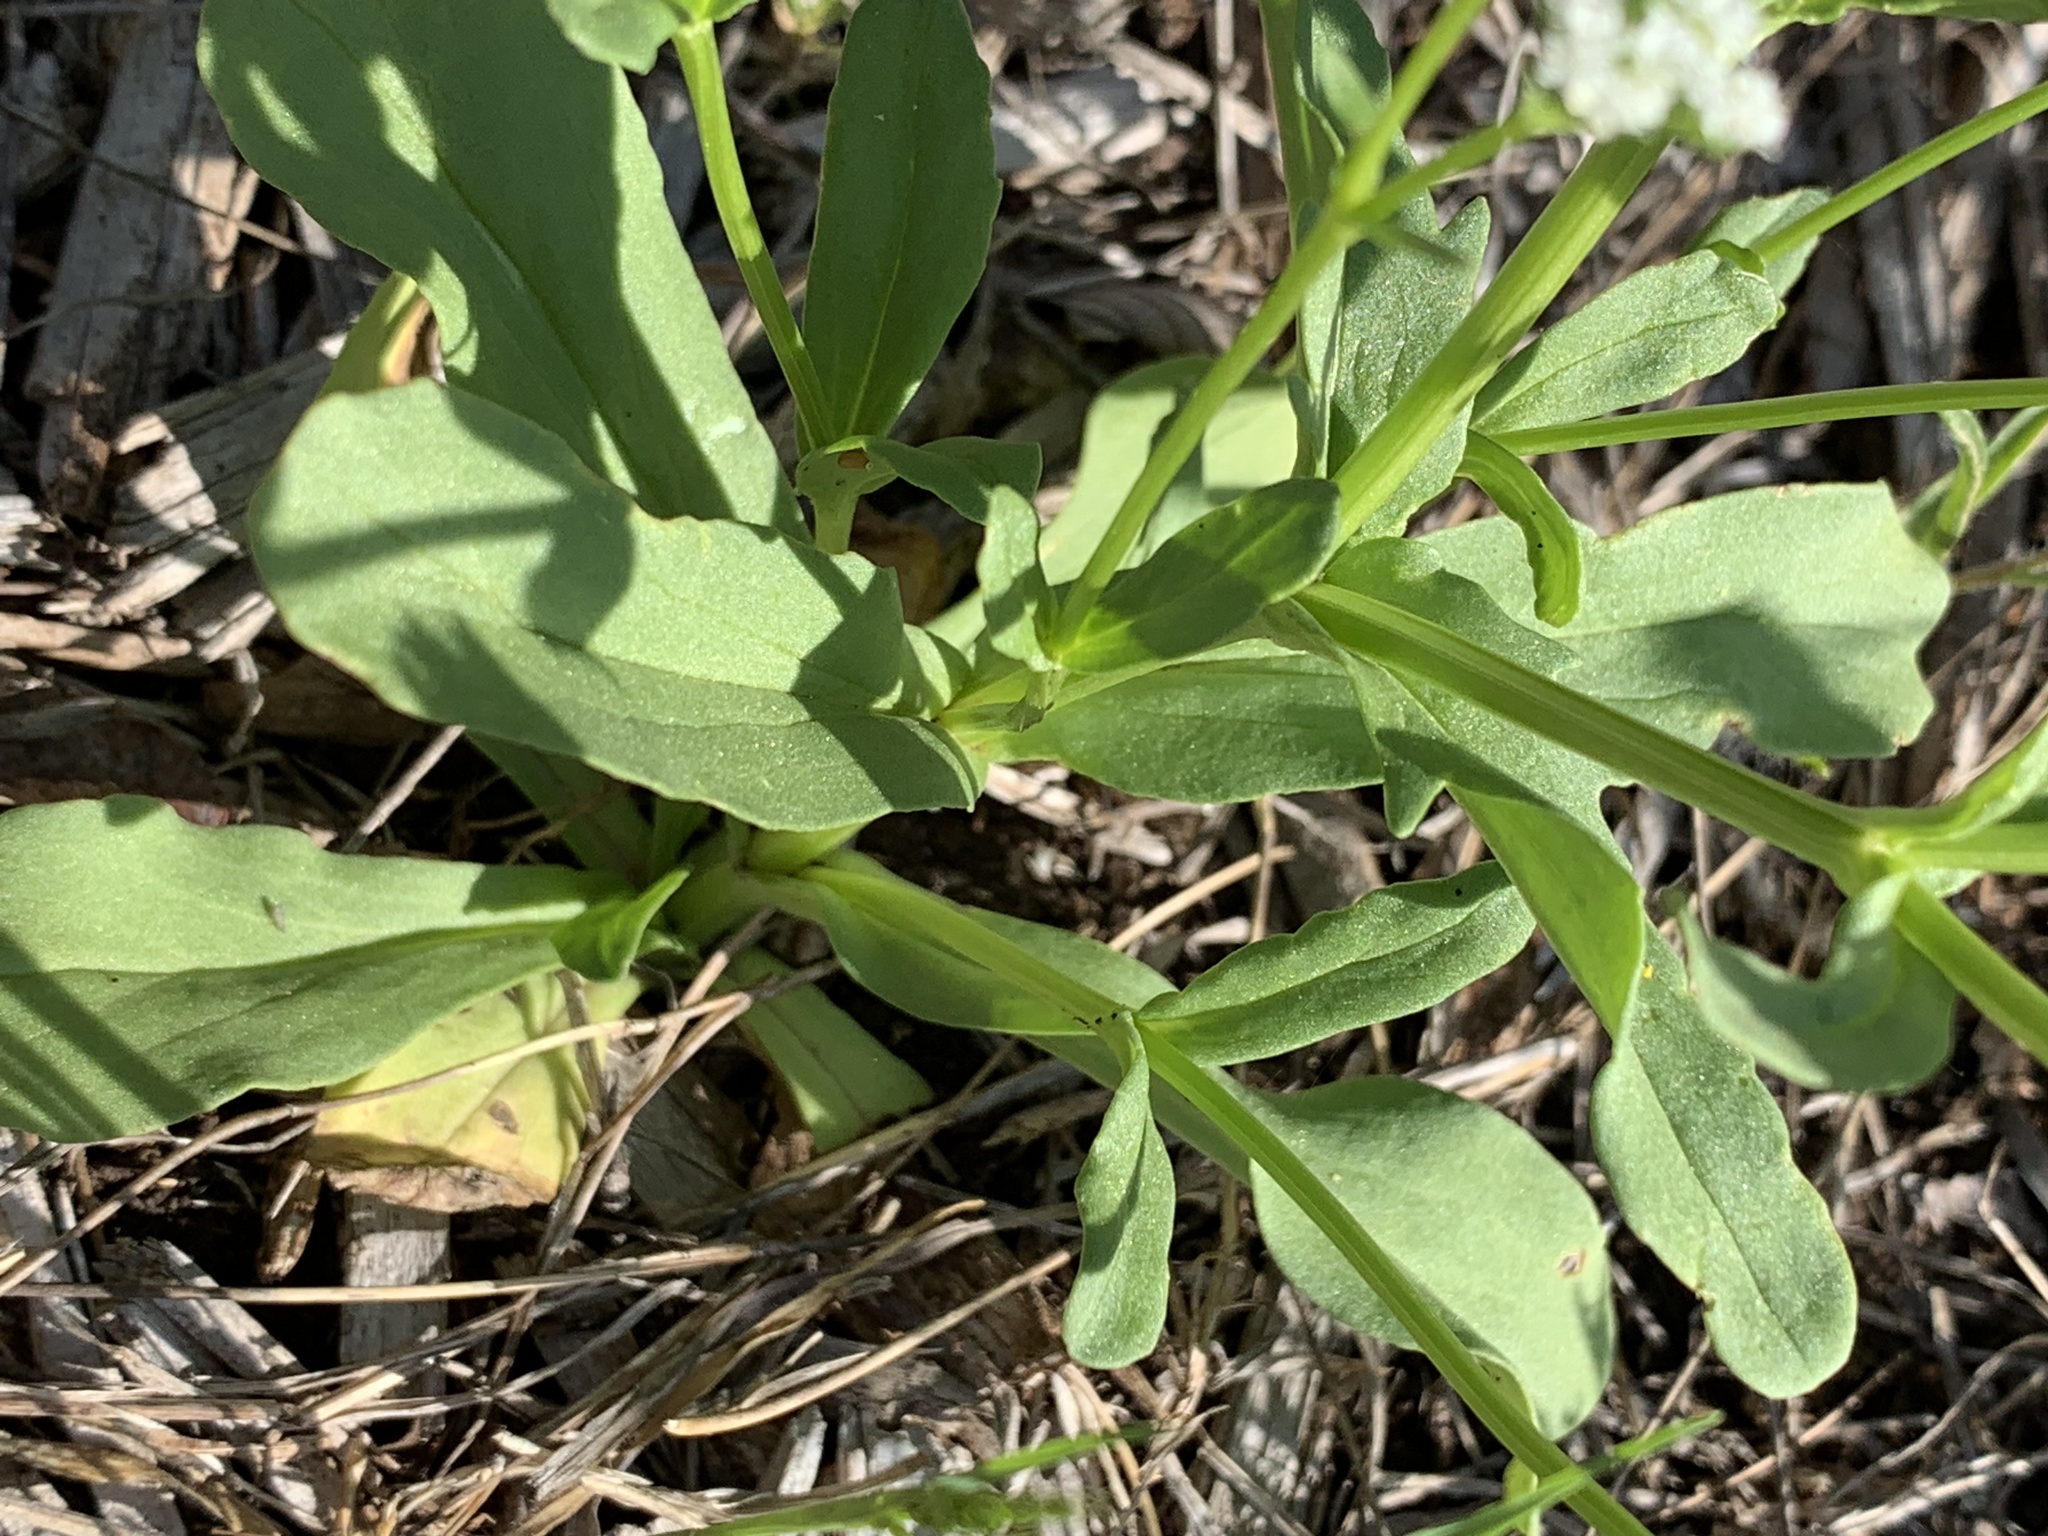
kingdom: Plantae
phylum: Tracheophyta
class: Magnoliopsida
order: Dipsacales
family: Caprifoliaceae
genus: Valerianella
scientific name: Valerianella radiata
